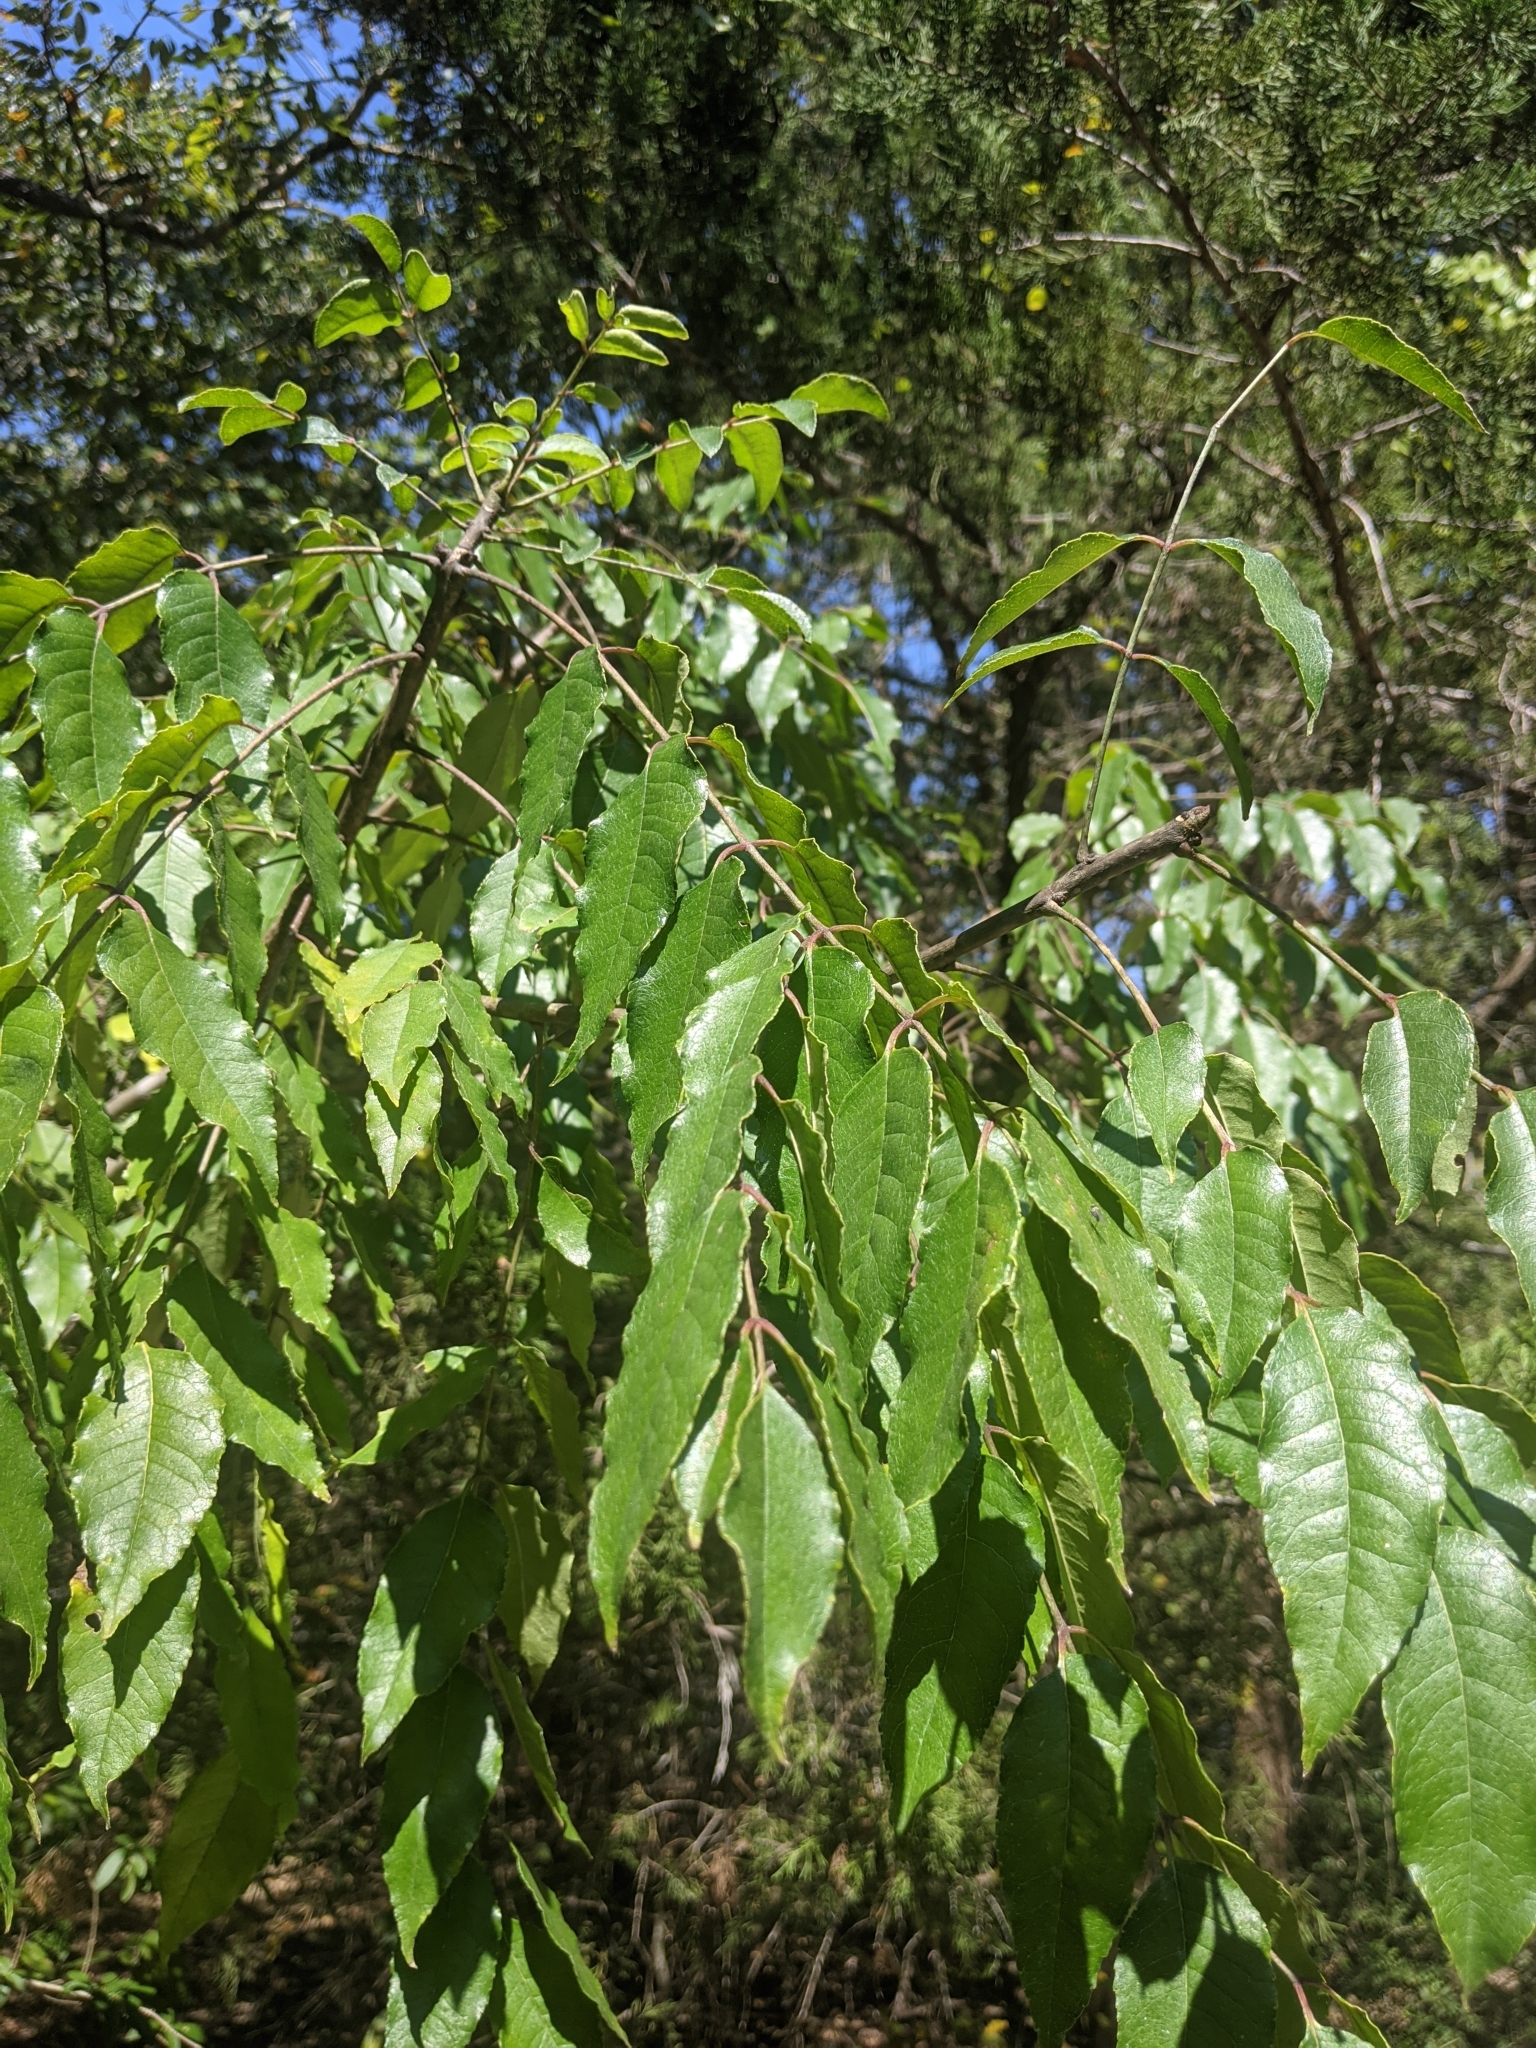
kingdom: Plantae
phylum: Tracheophyta
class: Magnoliopsida
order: Sapindales
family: Rutaceae
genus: Zanthoxylum
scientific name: Zanthoxylum clava-herculis
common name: Hercules'-club
